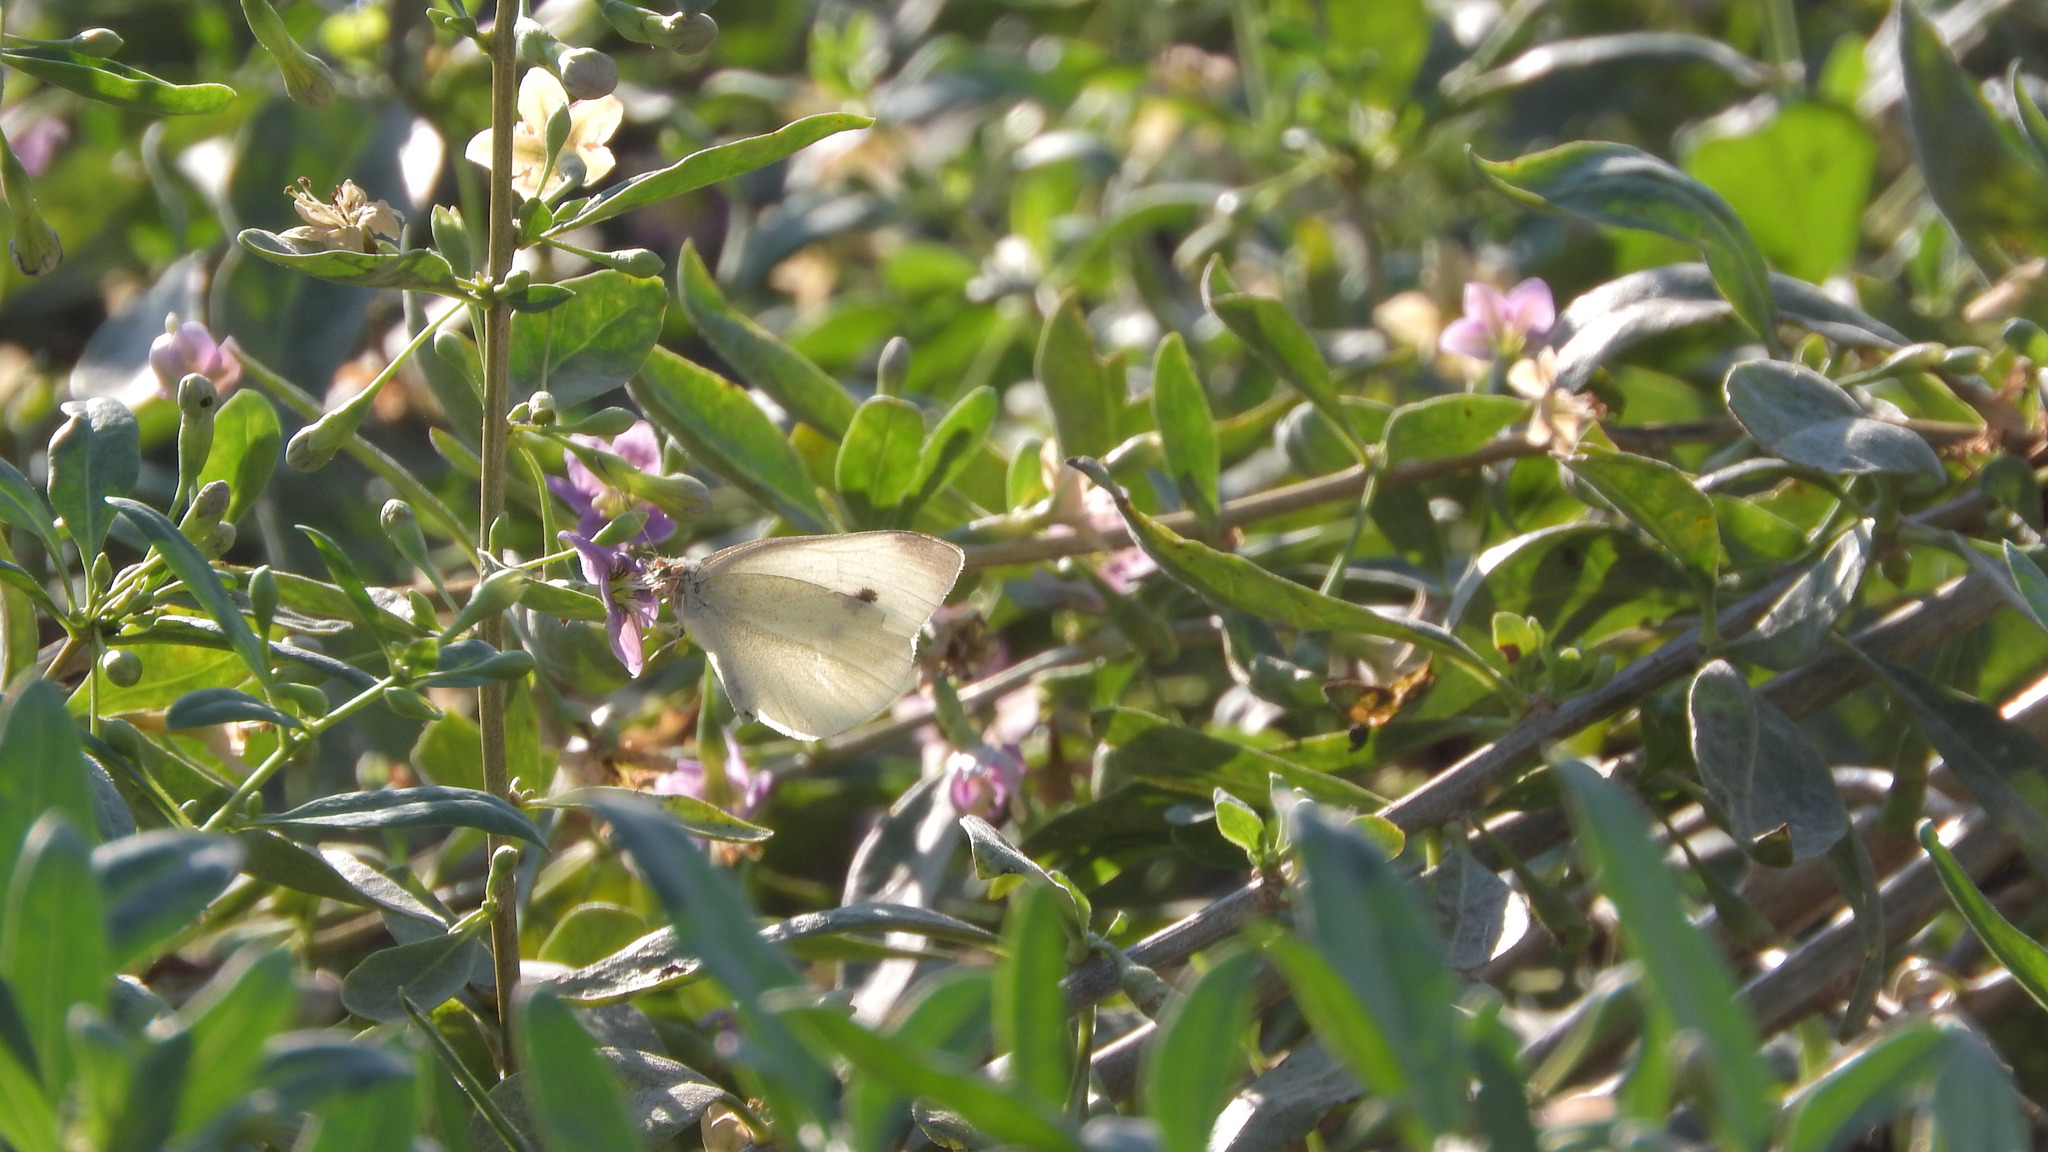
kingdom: Animalia
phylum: Arthropoda
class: Insecta
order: Lepidoptera
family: Pieridae
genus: Pieris
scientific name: Pieris rapae
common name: Small white
